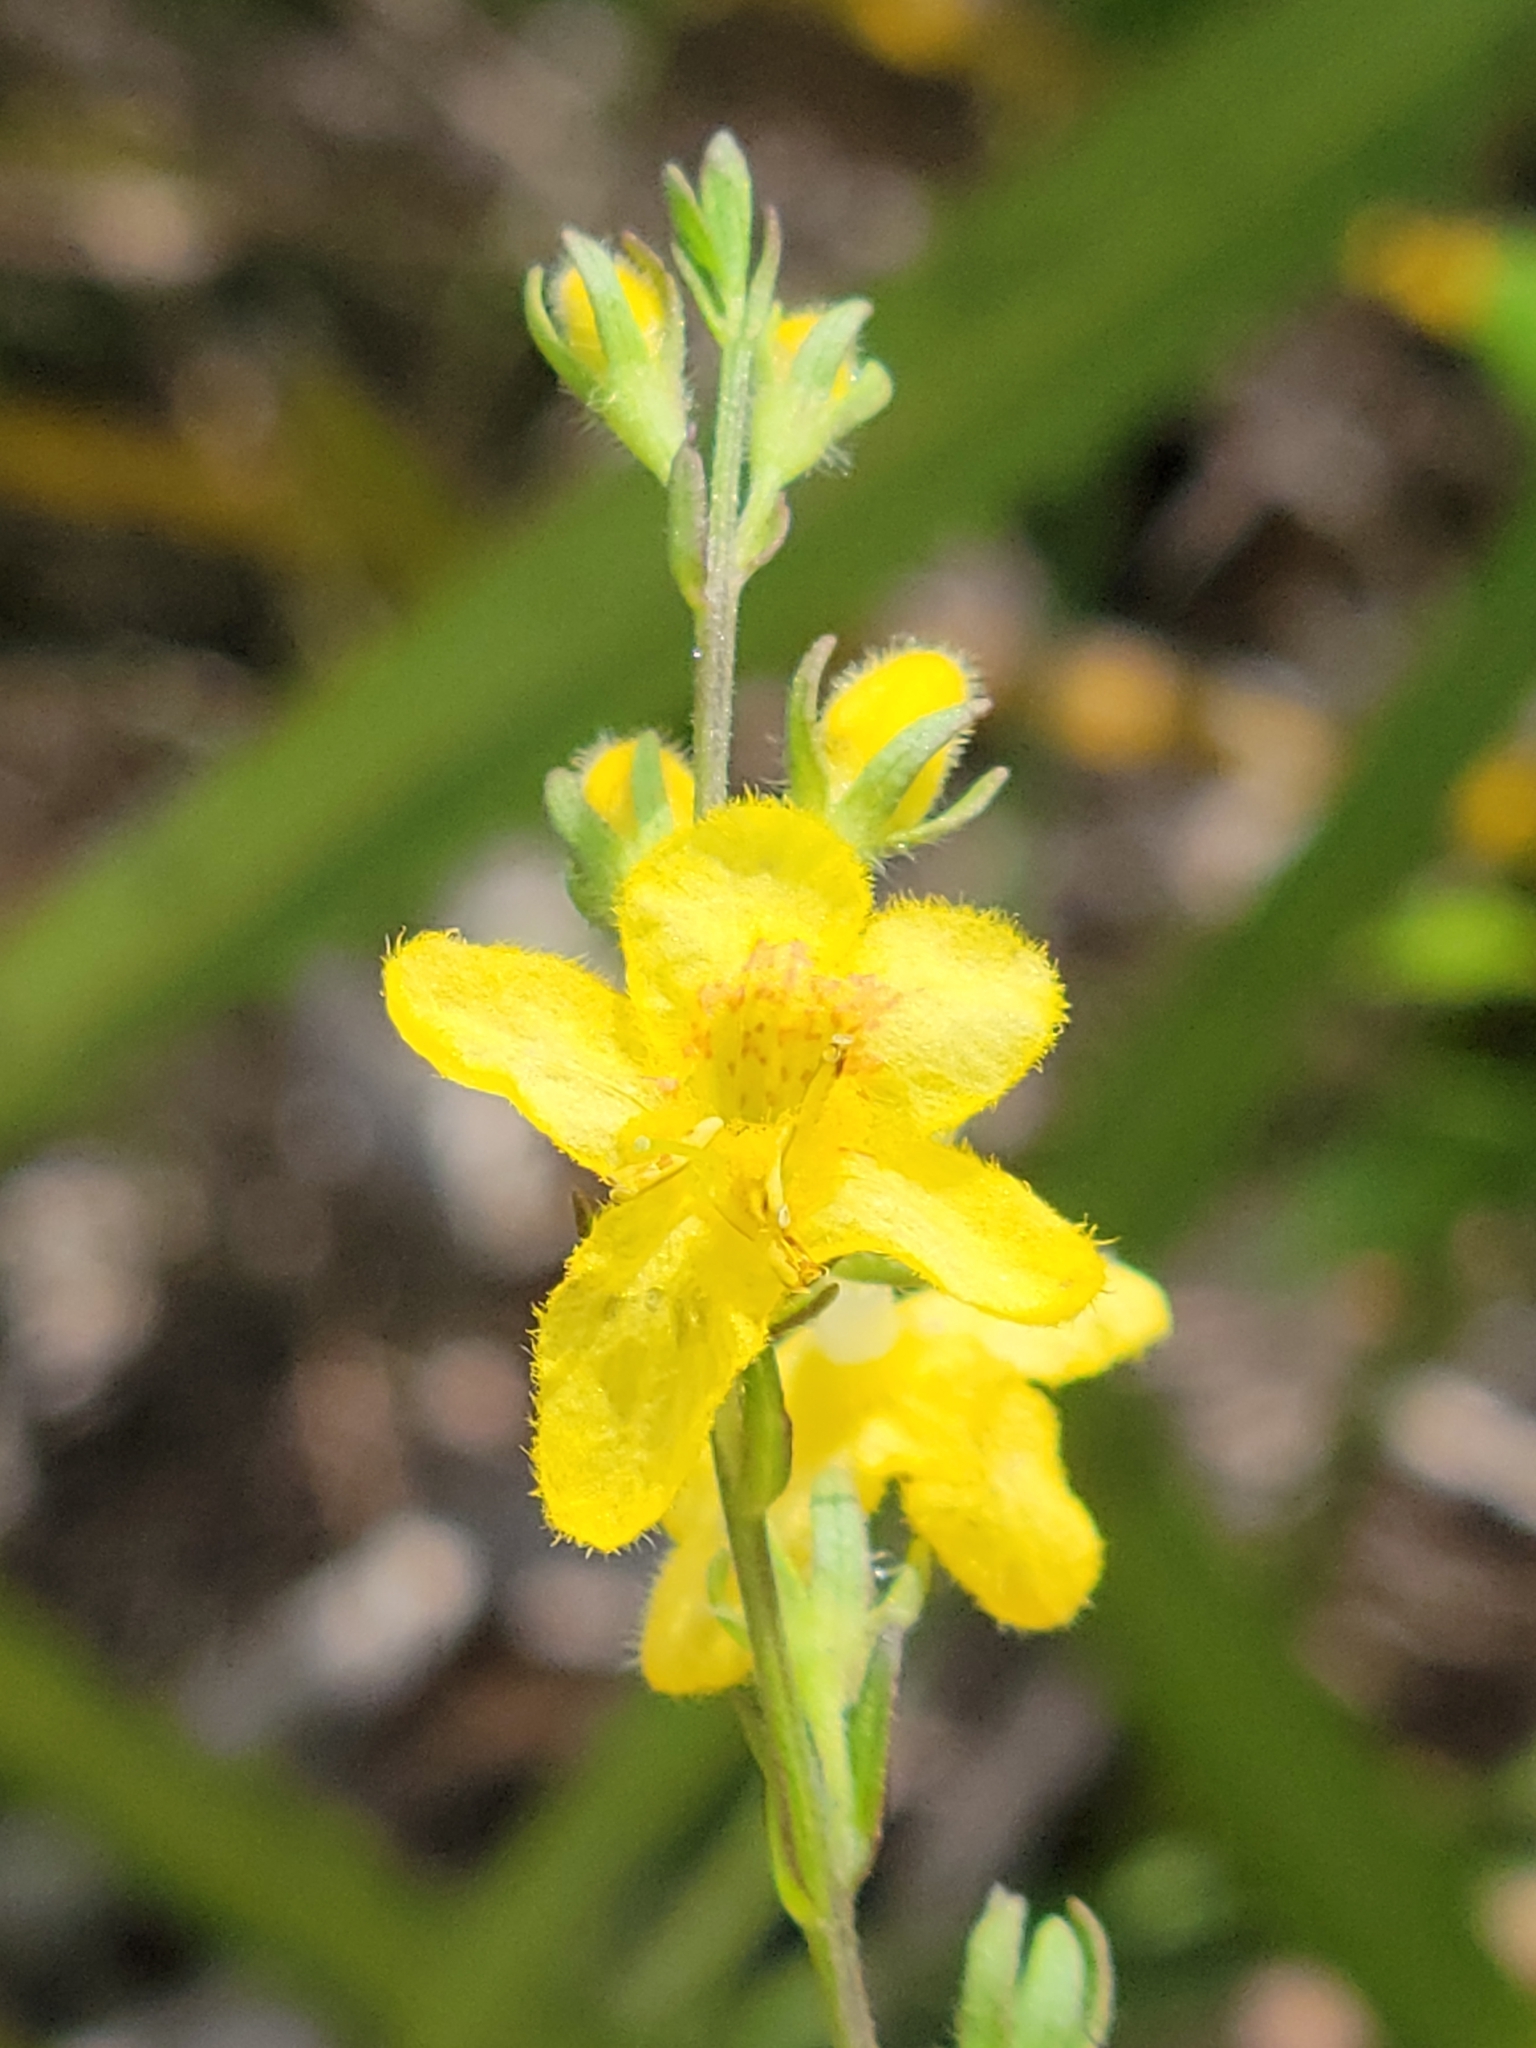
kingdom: Plantae
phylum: Tracheophyta
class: Magnoliopsida
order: Lamiales
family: Orobanchaceae
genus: Seymeria
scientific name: Seymeria pectinata
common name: Piedmont black-senna
